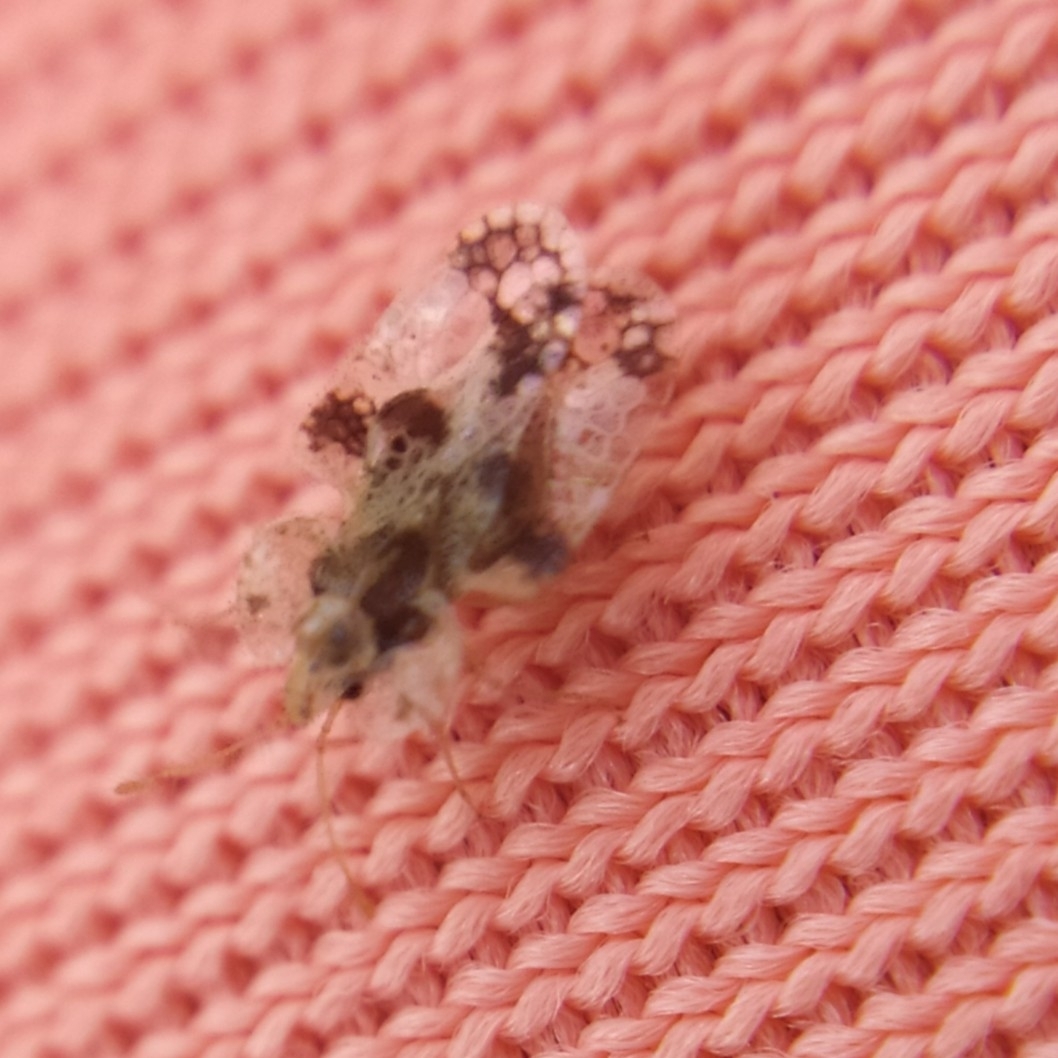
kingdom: Animalia
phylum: Arthropoda
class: Insecta
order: Hemiptera
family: Tingidae
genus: Corythucha
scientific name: Corythucha arcuata
